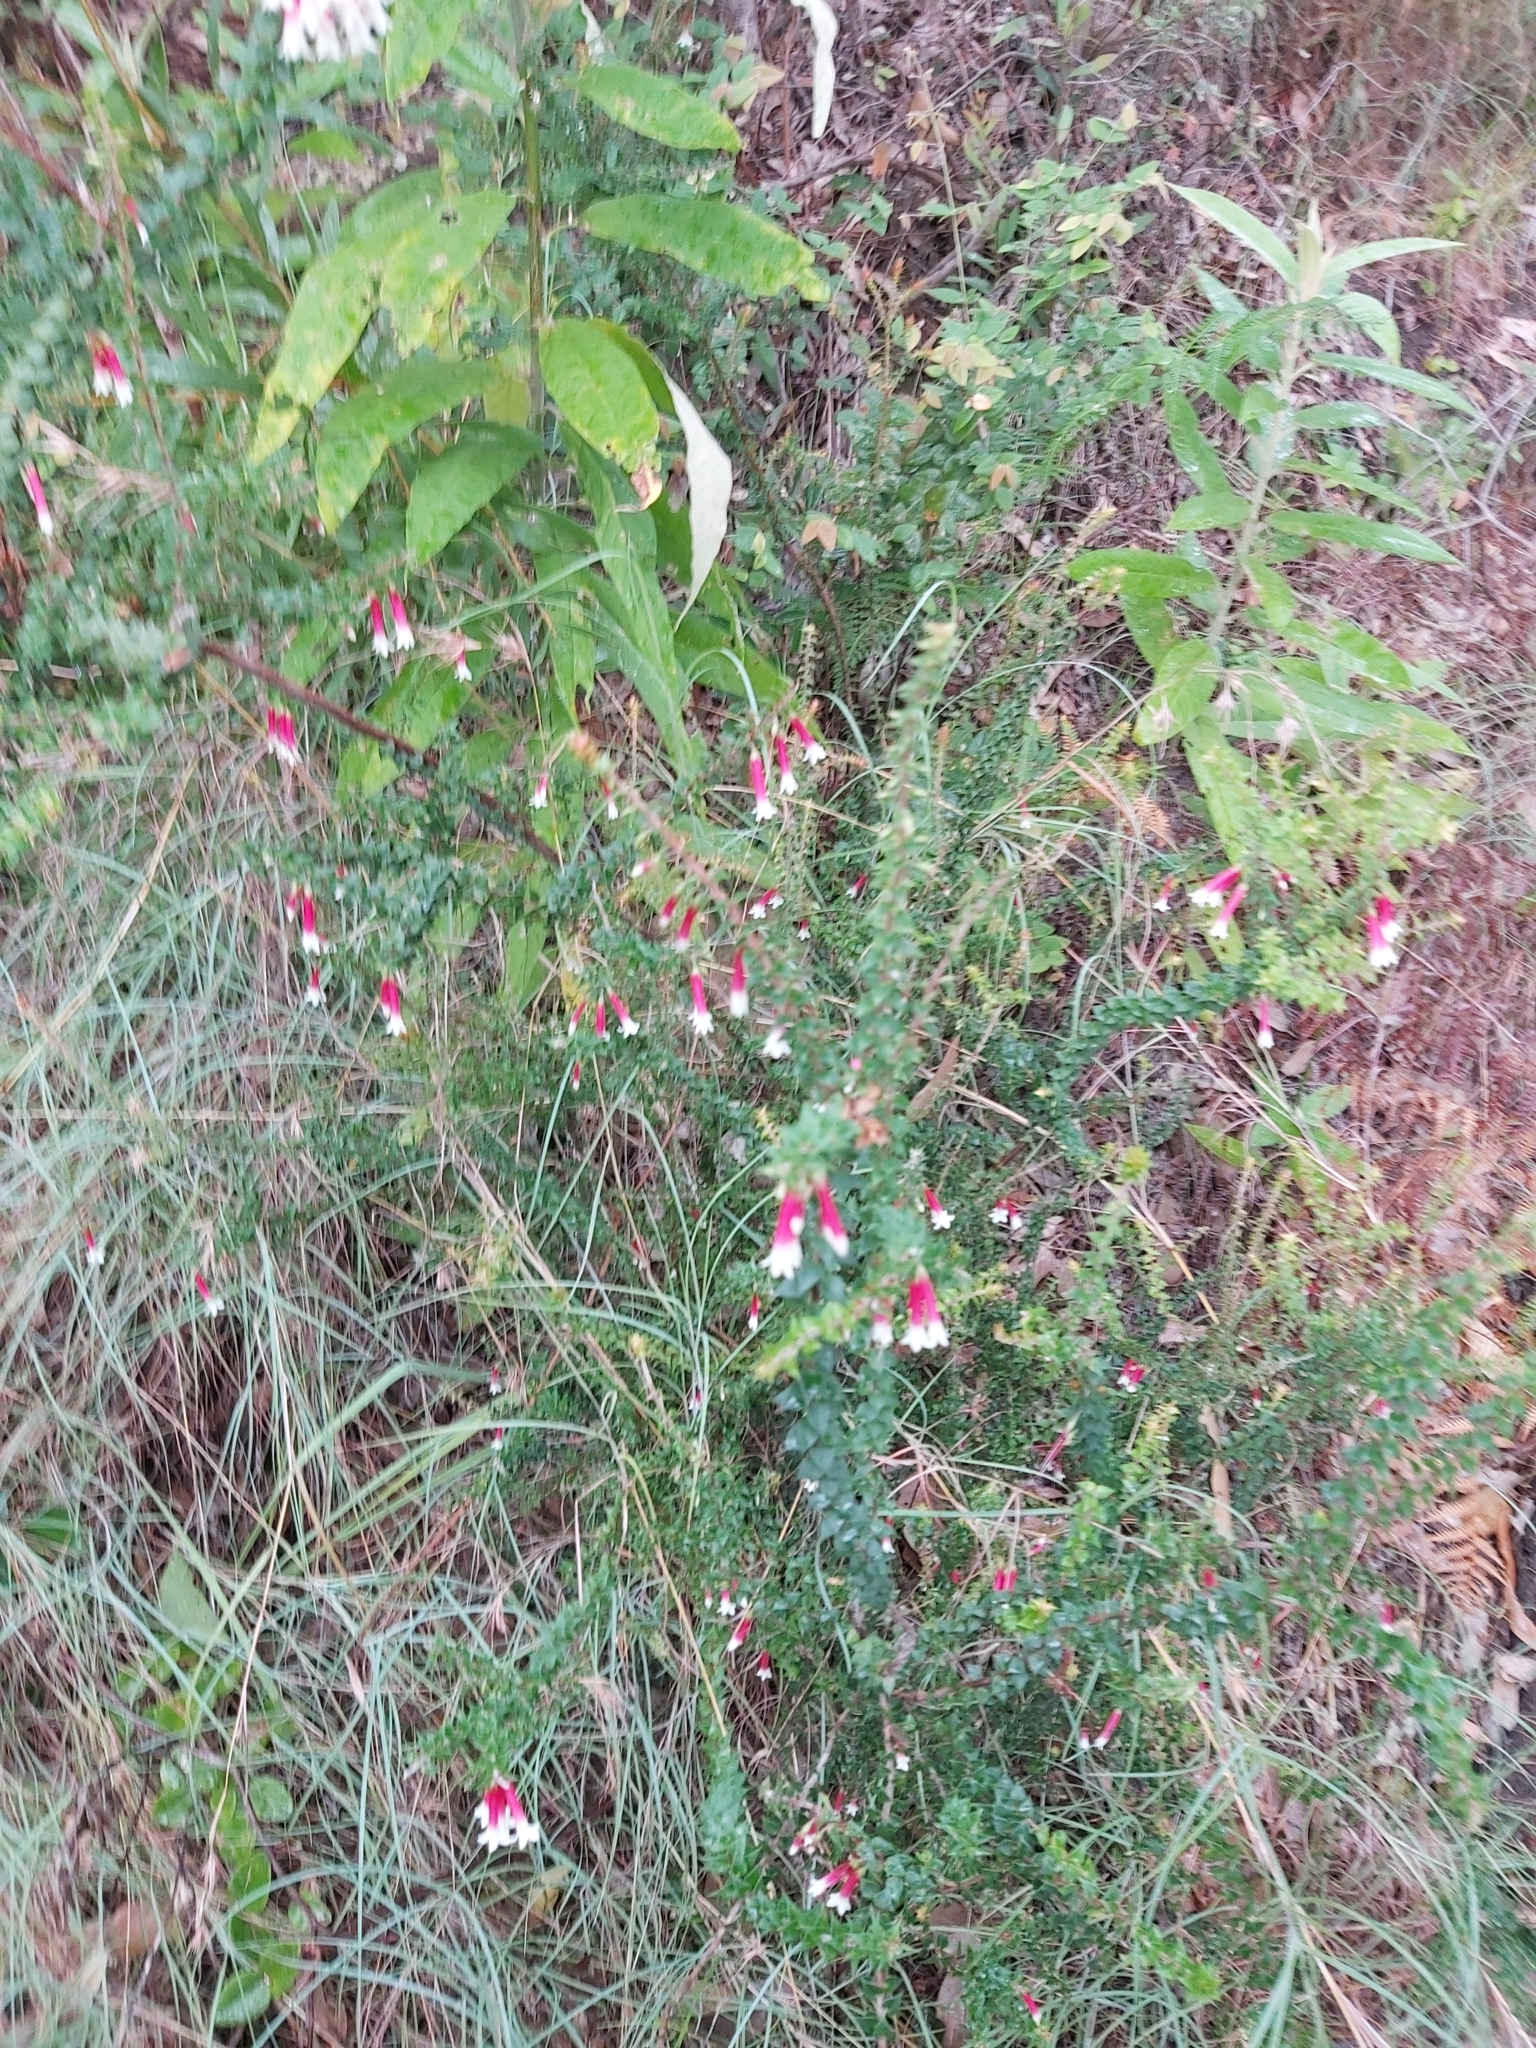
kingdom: Plantae
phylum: Tracheophyta
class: Magnoliopsida
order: Ericales
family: Ericaceae
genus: Epacris
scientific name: Epacris longiflora
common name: Fuchsia-heath
